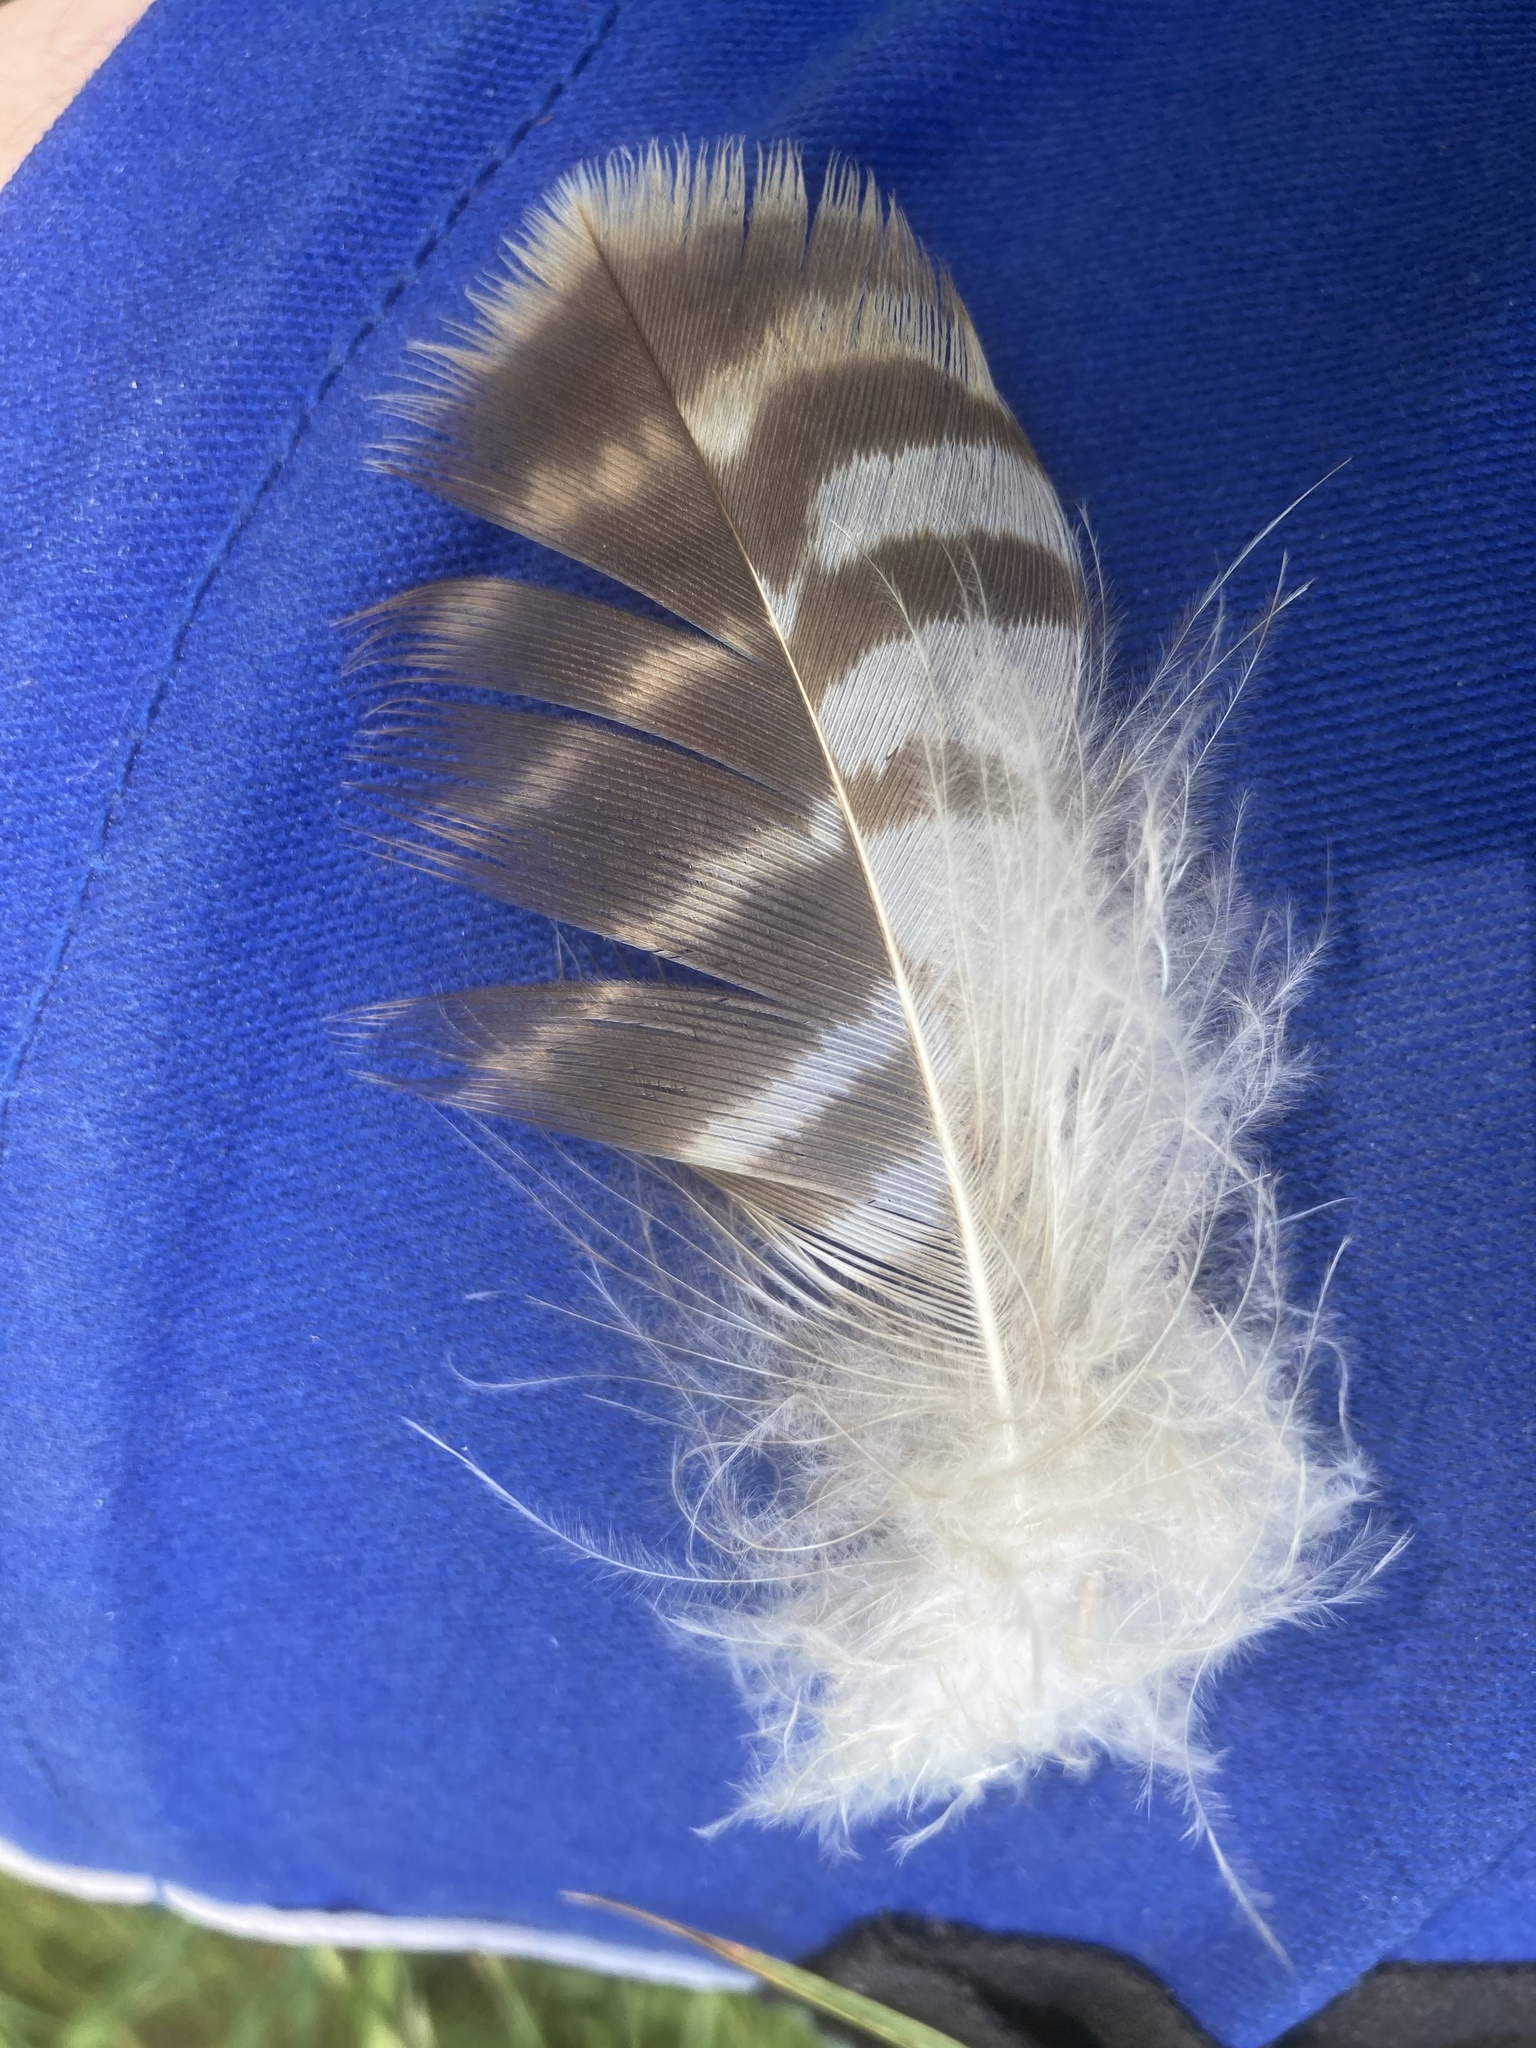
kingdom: Animalia
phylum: Chordata
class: Aves
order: Accipitriformes
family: Accipitridae
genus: Buteo
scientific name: Buteo buteo
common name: Common buzzard
